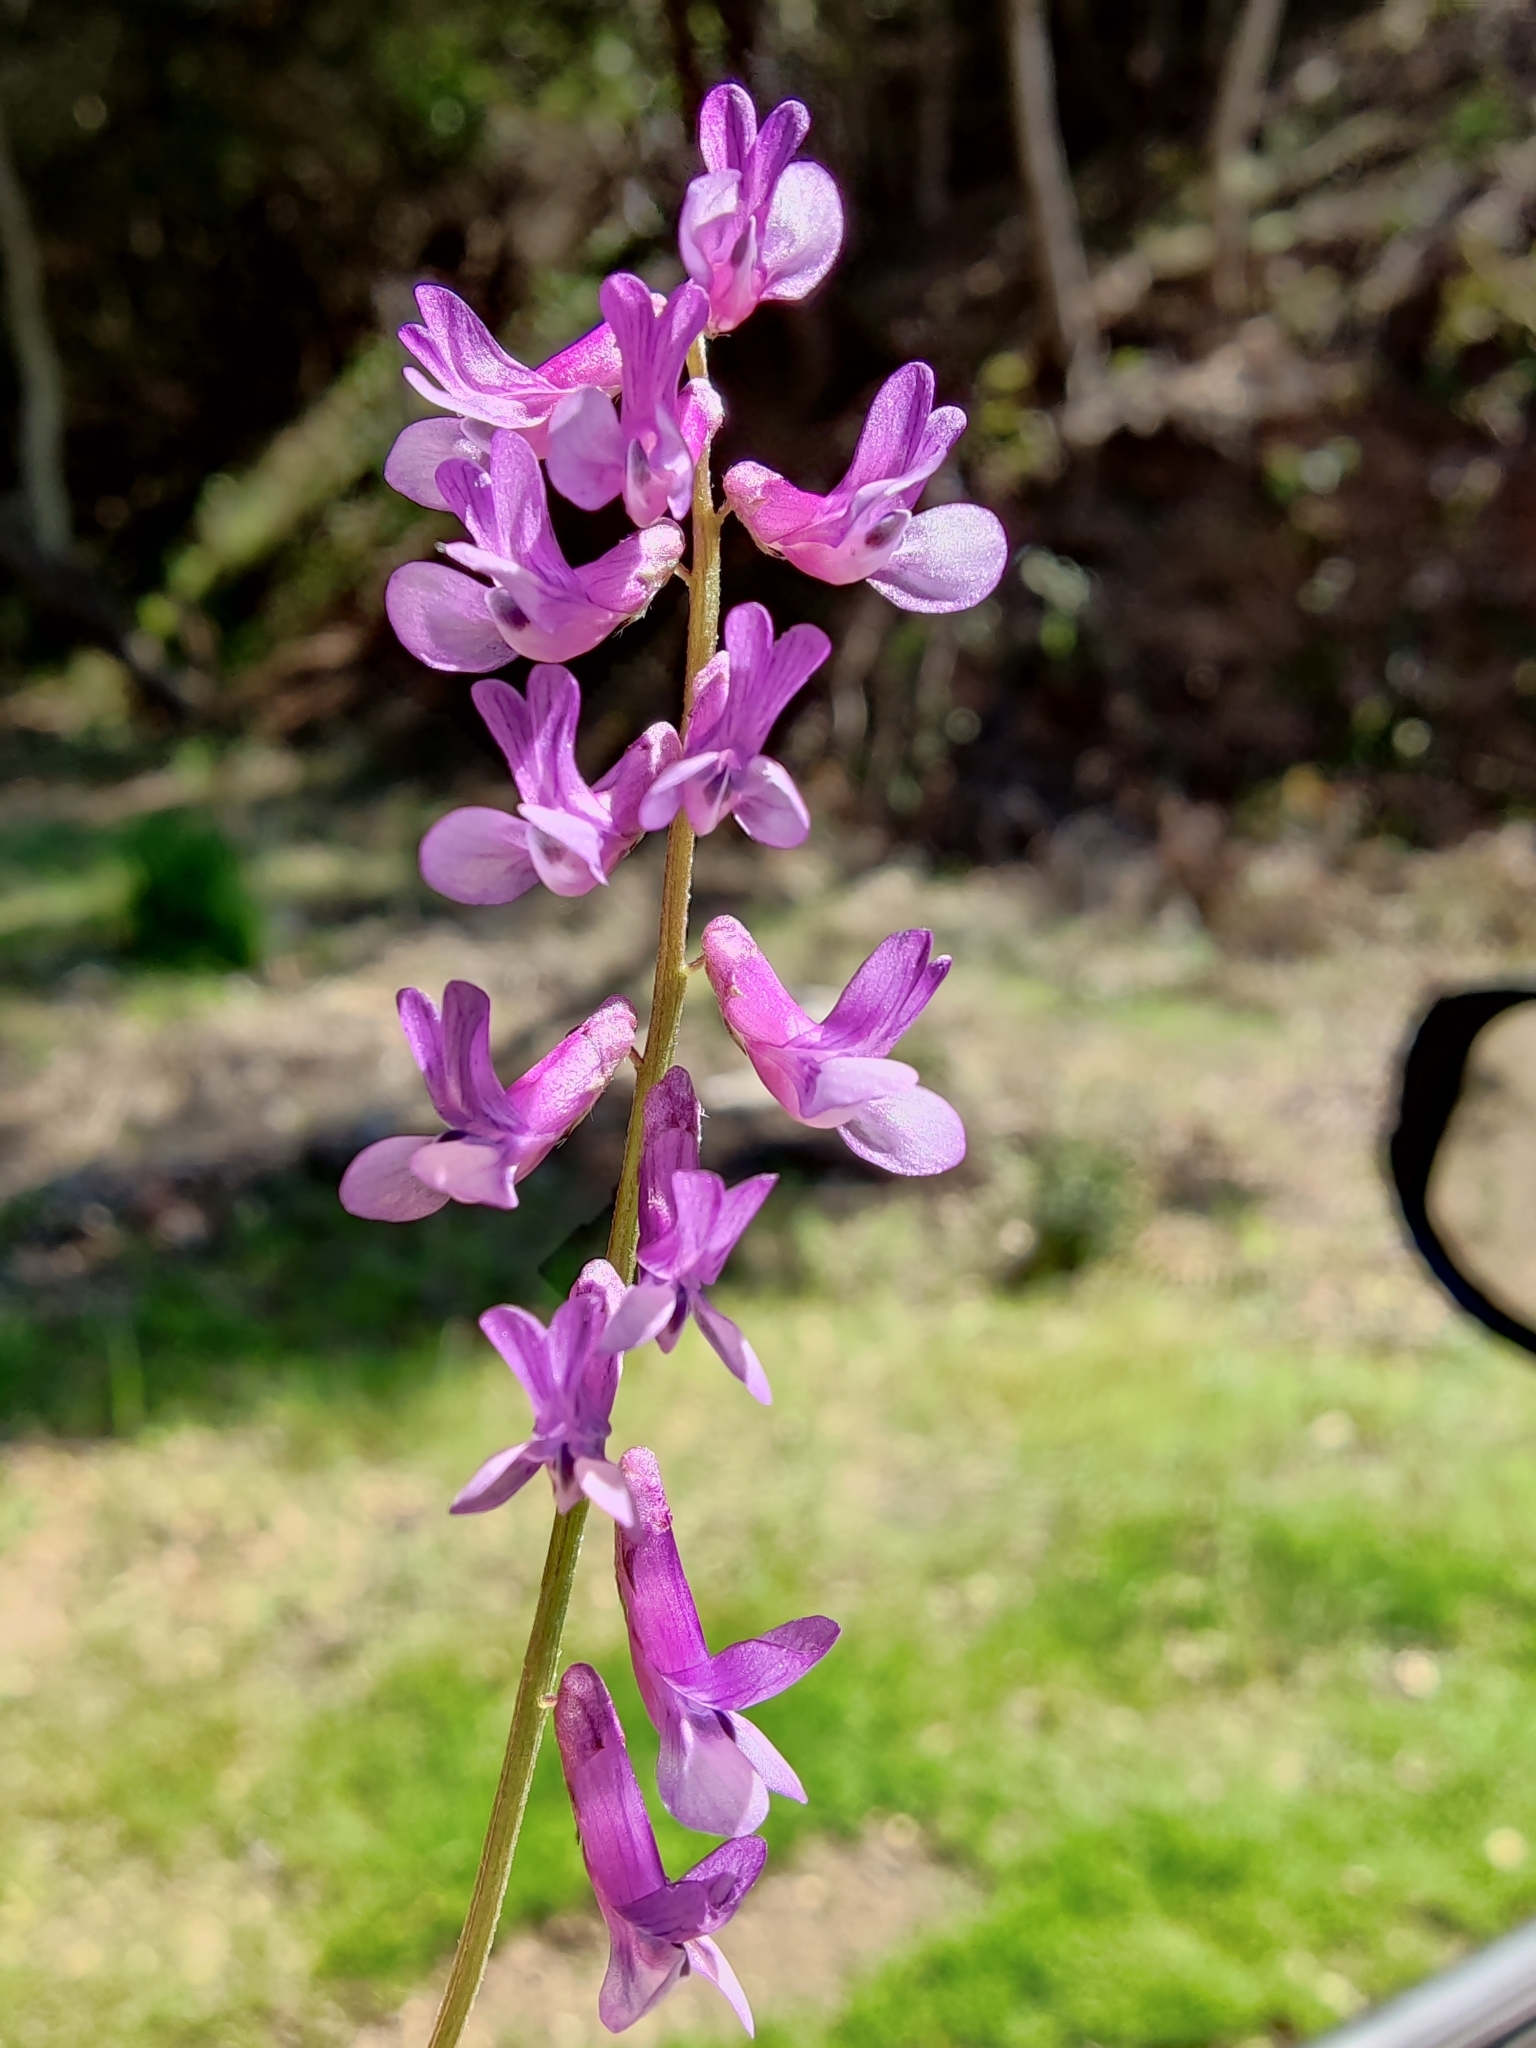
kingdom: Plantae
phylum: Tracheophyta
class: Magnoliopsida
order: Fabales
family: Fabaceae
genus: Vicia
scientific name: Vicia villosa
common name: Fodder vetch
